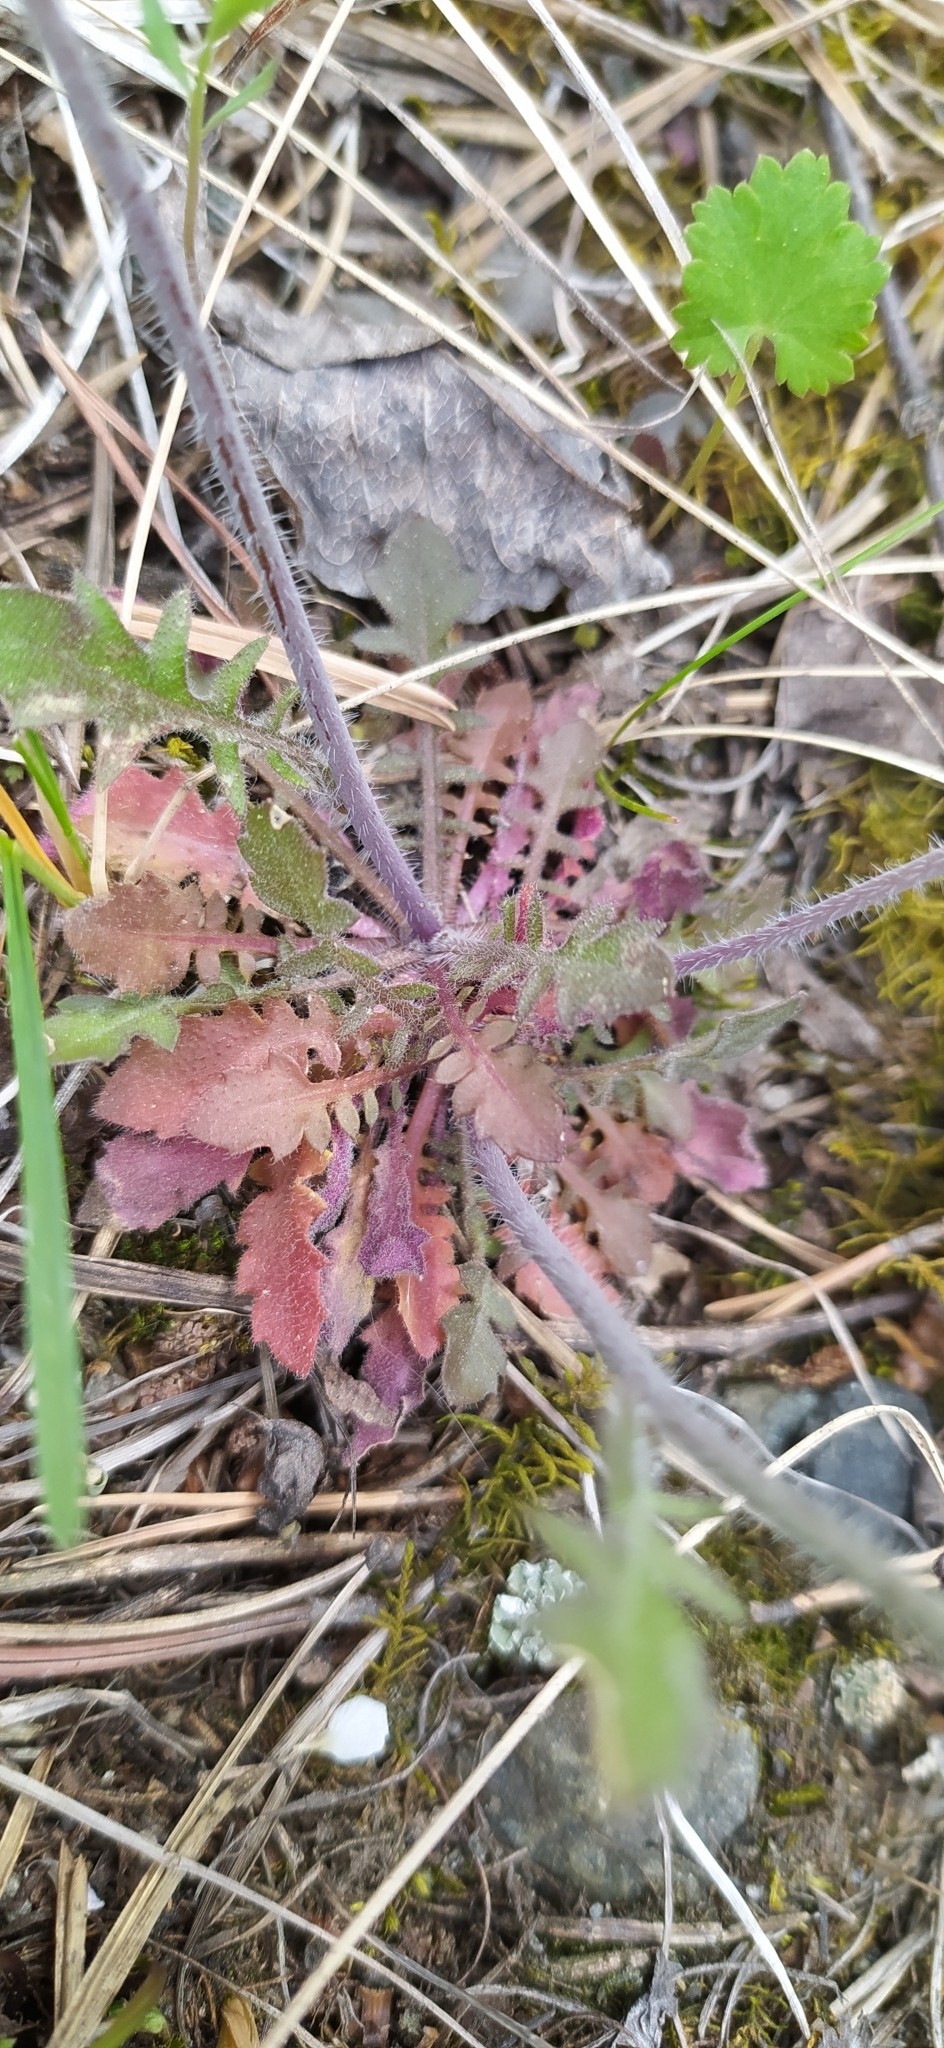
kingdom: Plantae
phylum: Tracheophyta
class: Magnoliopsida
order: Brassicales
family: Brassicaceae
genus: Arabidopsis
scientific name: Arabidopsis arenosa
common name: Sand rock-cress
